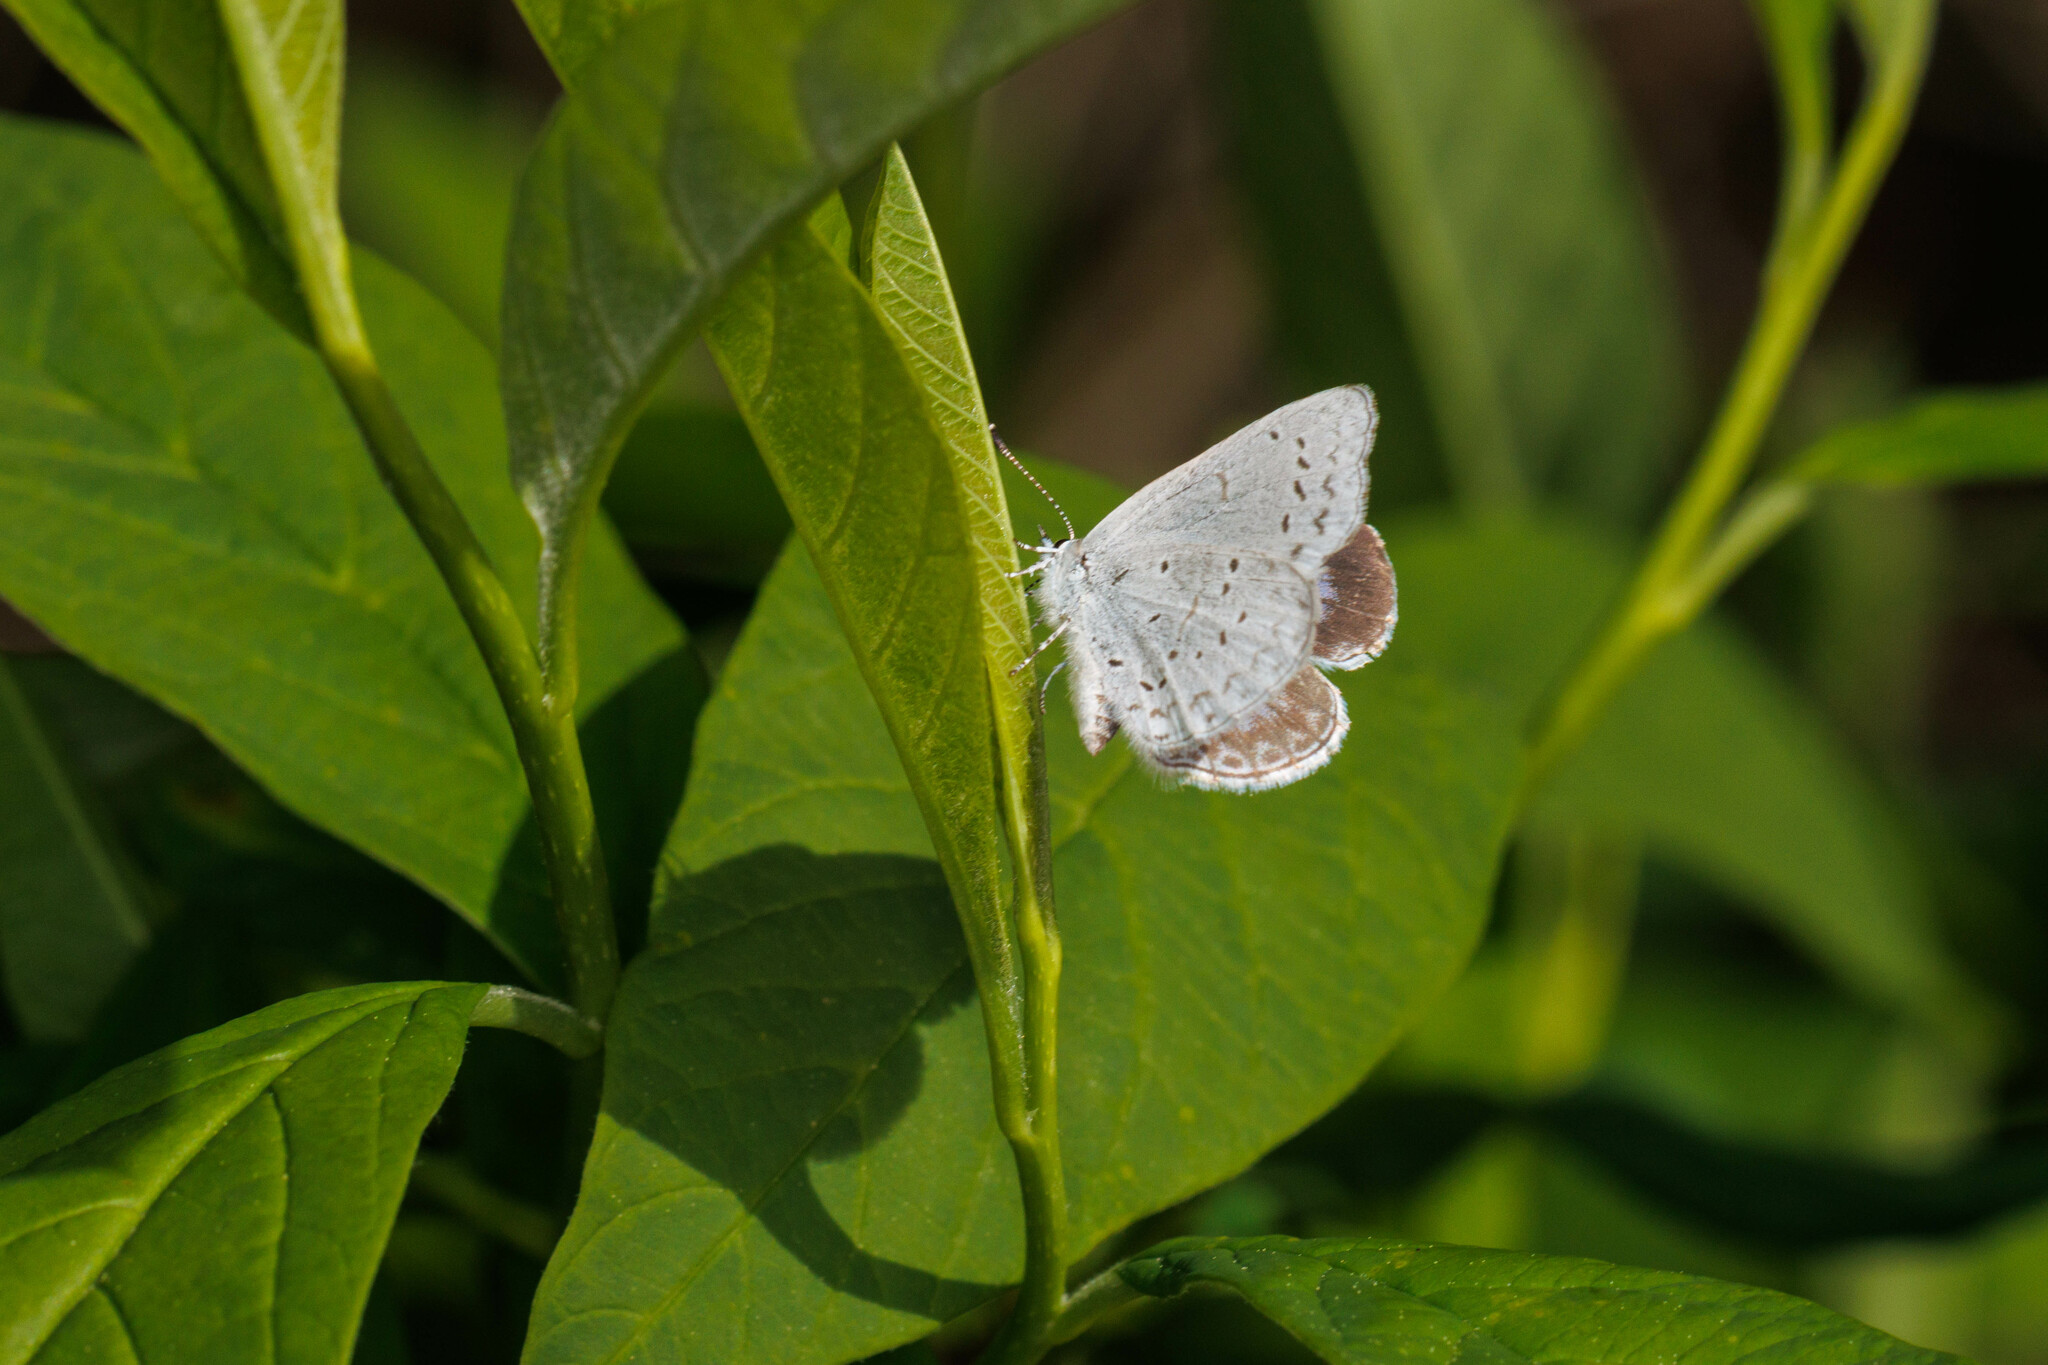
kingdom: Animalia
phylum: Arthropoda
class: Insecta
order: Lepidoptera
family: Lycaenidae
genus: Celastrina
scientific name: Celastrina ladon
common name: Spring azure
